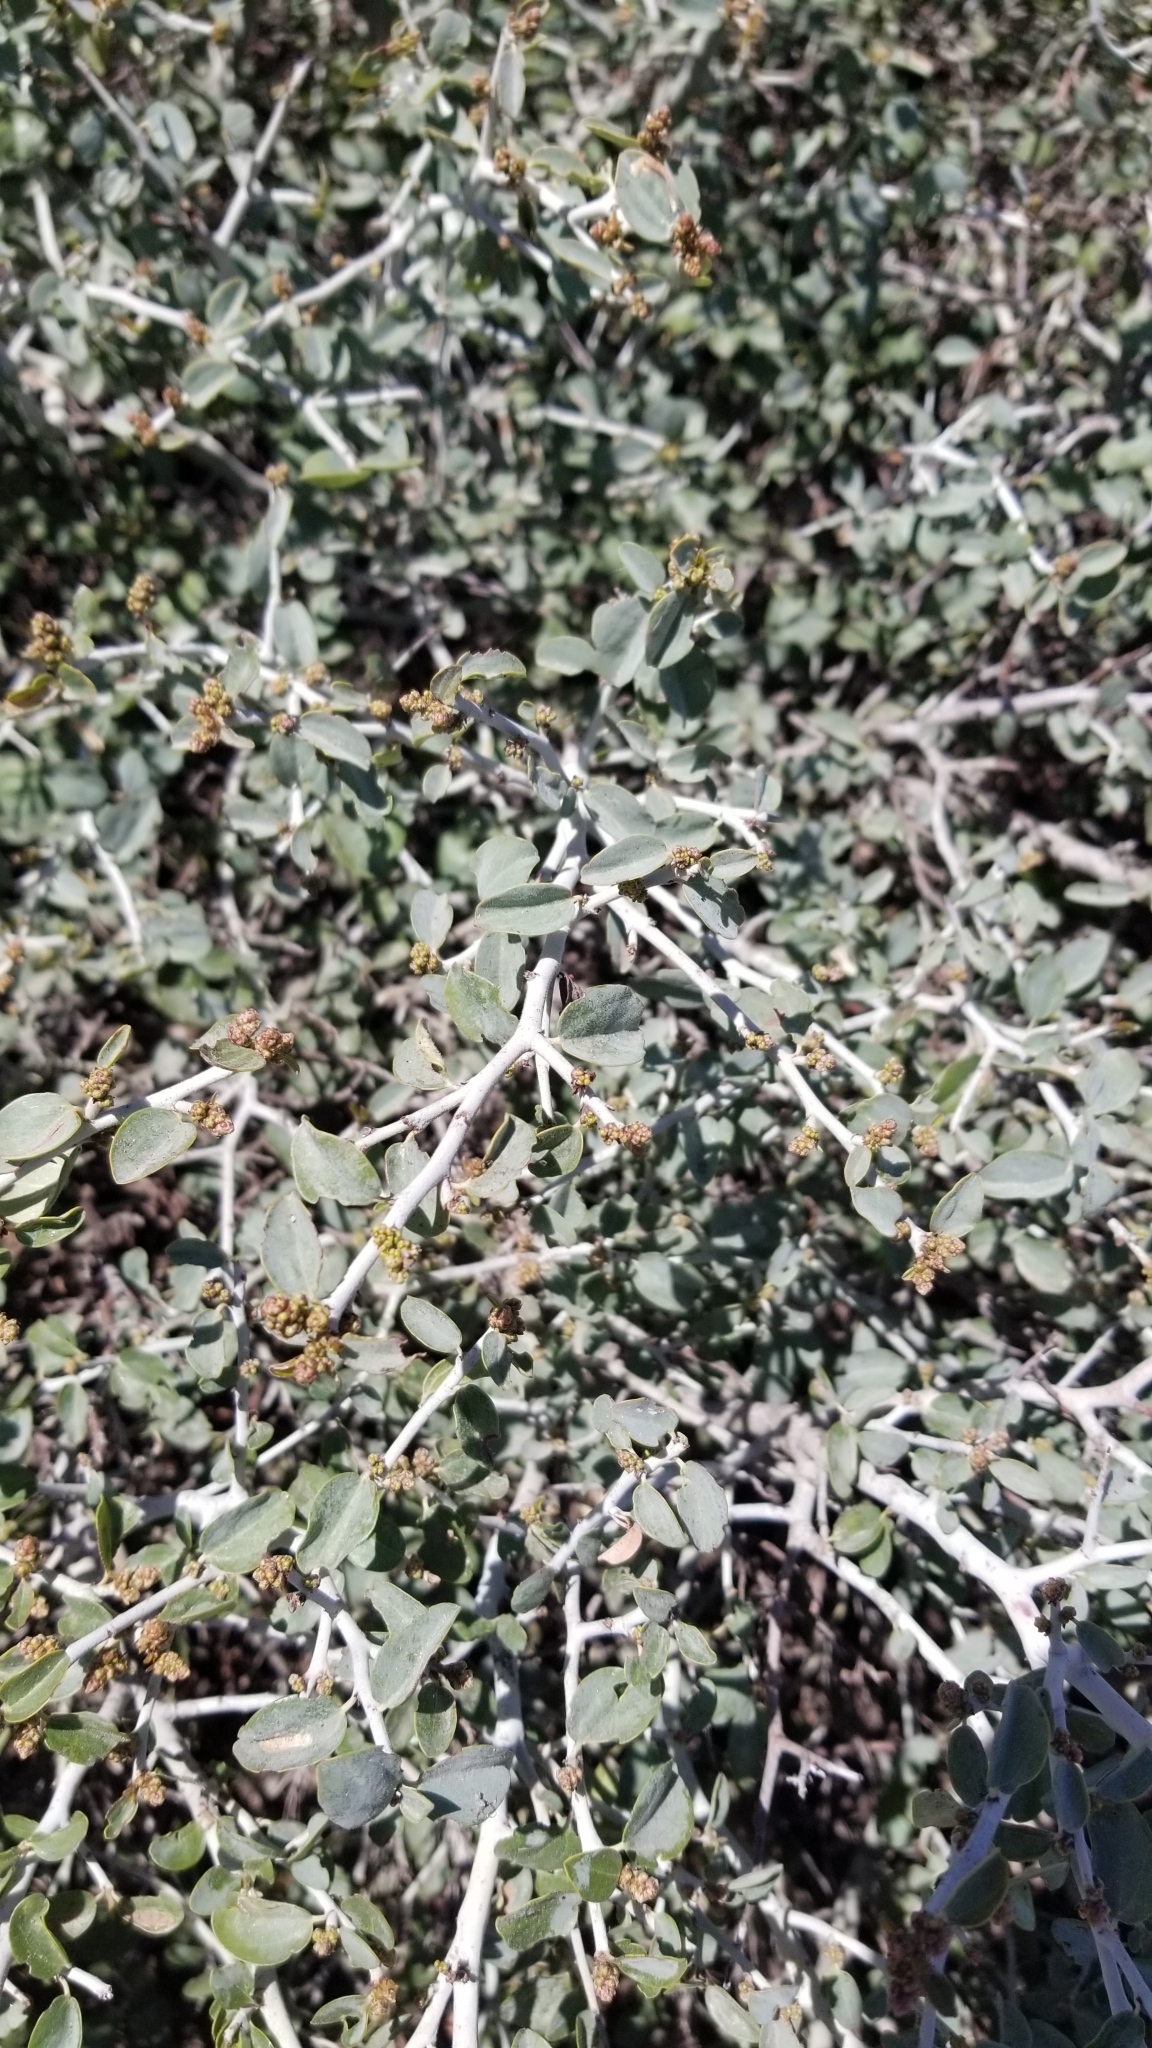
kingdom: Plantae
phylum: Tracheophyta
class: Magnoliopsida
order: Rosales
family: Rhamnaceae
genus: Ceanothus
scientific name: Ceanothus cordulatus
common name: Mountain whitethorn
